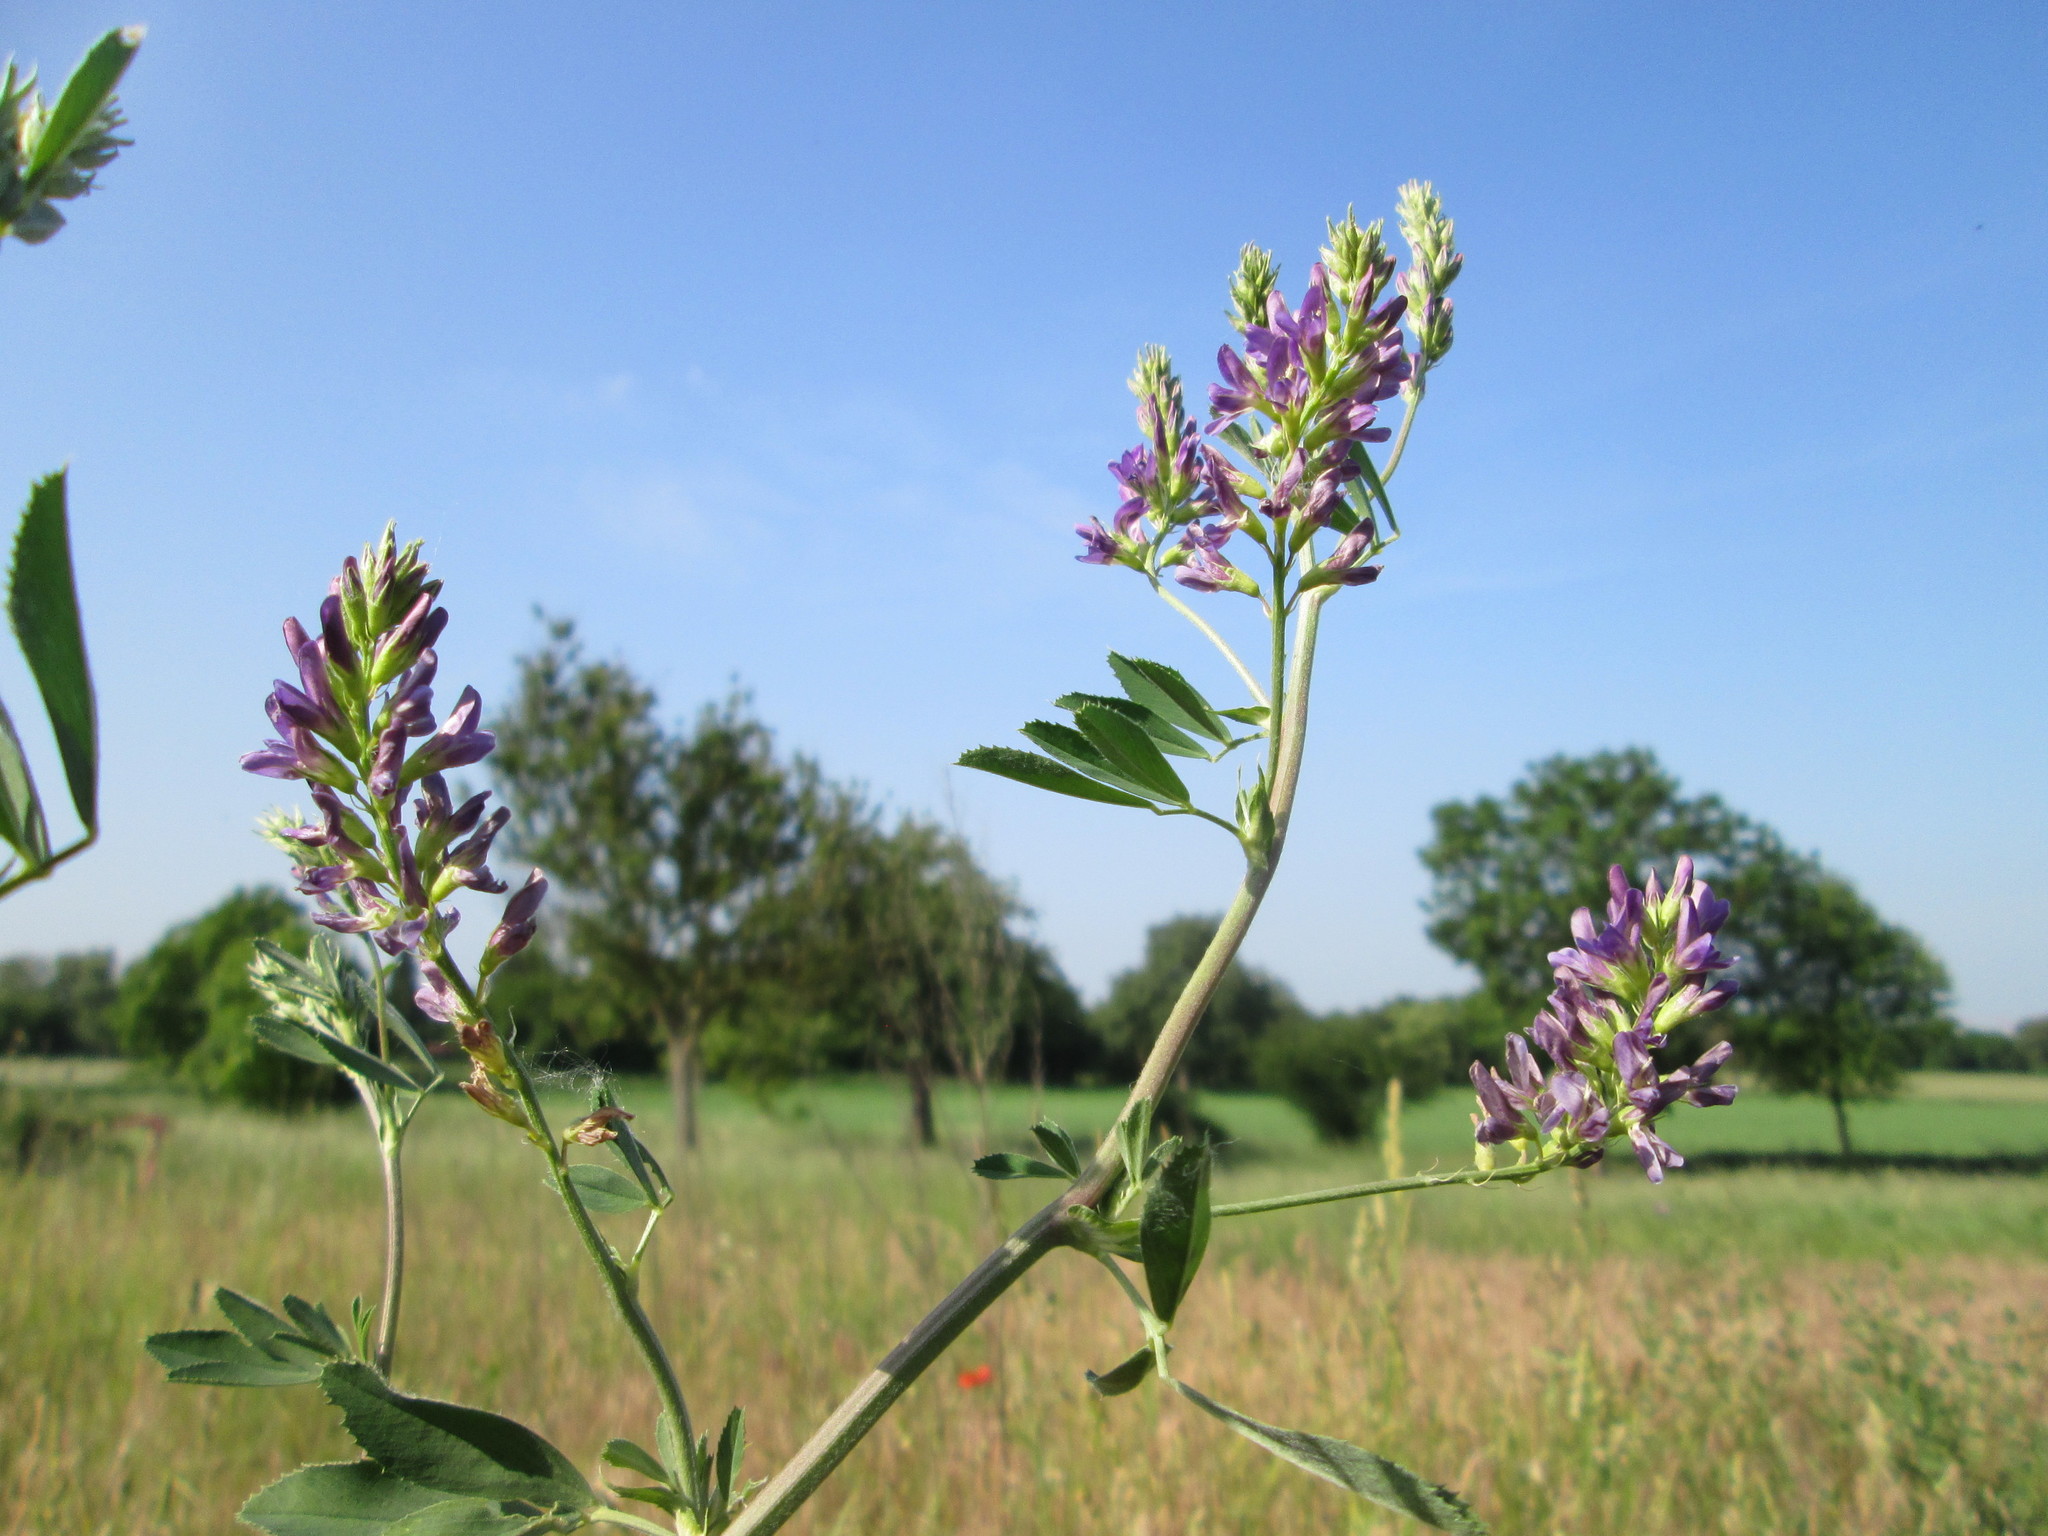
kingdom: Plantae
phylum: Tracheophyta
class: Magnoliopsida
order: Fabales
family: Fabaceae
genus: Medicago
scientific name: Medicago sativa
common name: Alfalfa
